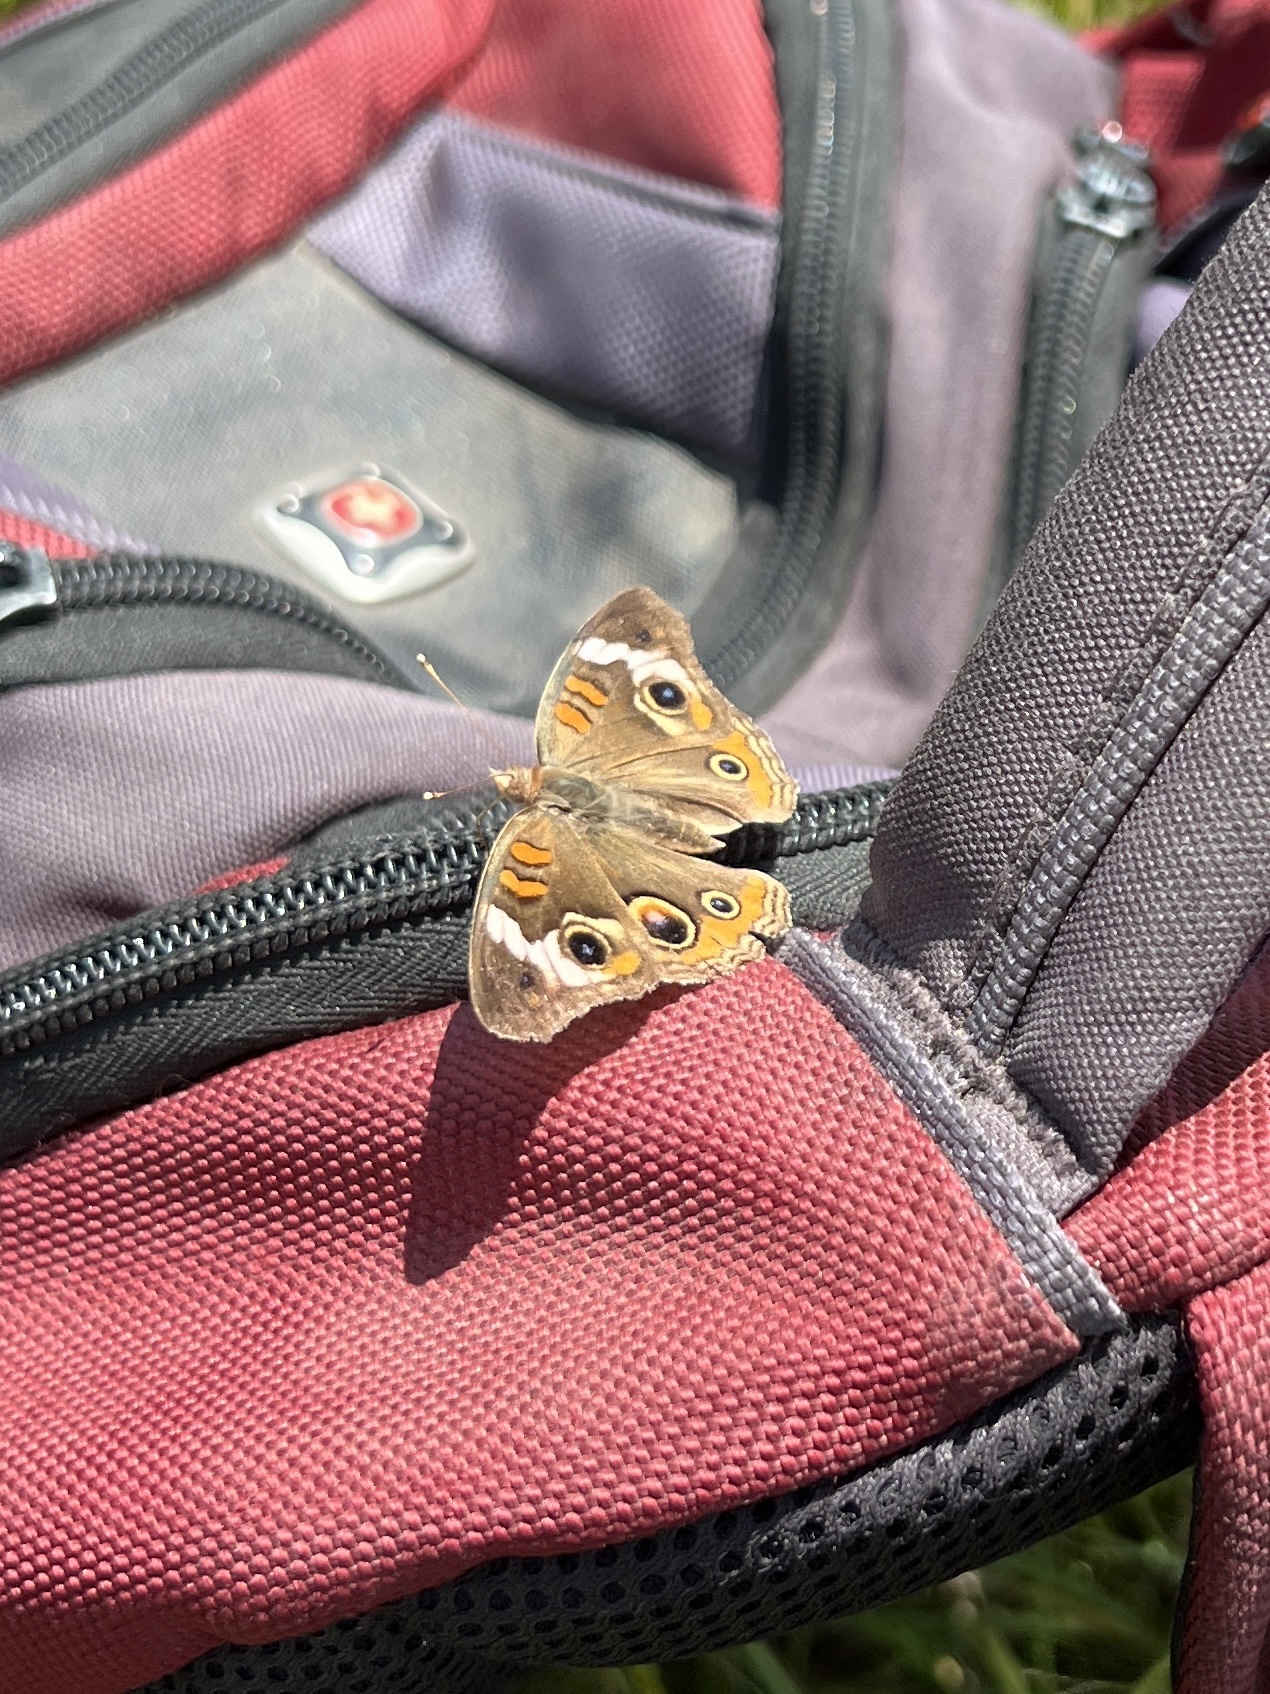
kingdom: Animalia
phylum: Arthropoda
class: Insecta
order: Lepidoptera
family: Nymphalidae
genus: Junonia
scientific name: Junonia coenia
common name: Common buckeye
